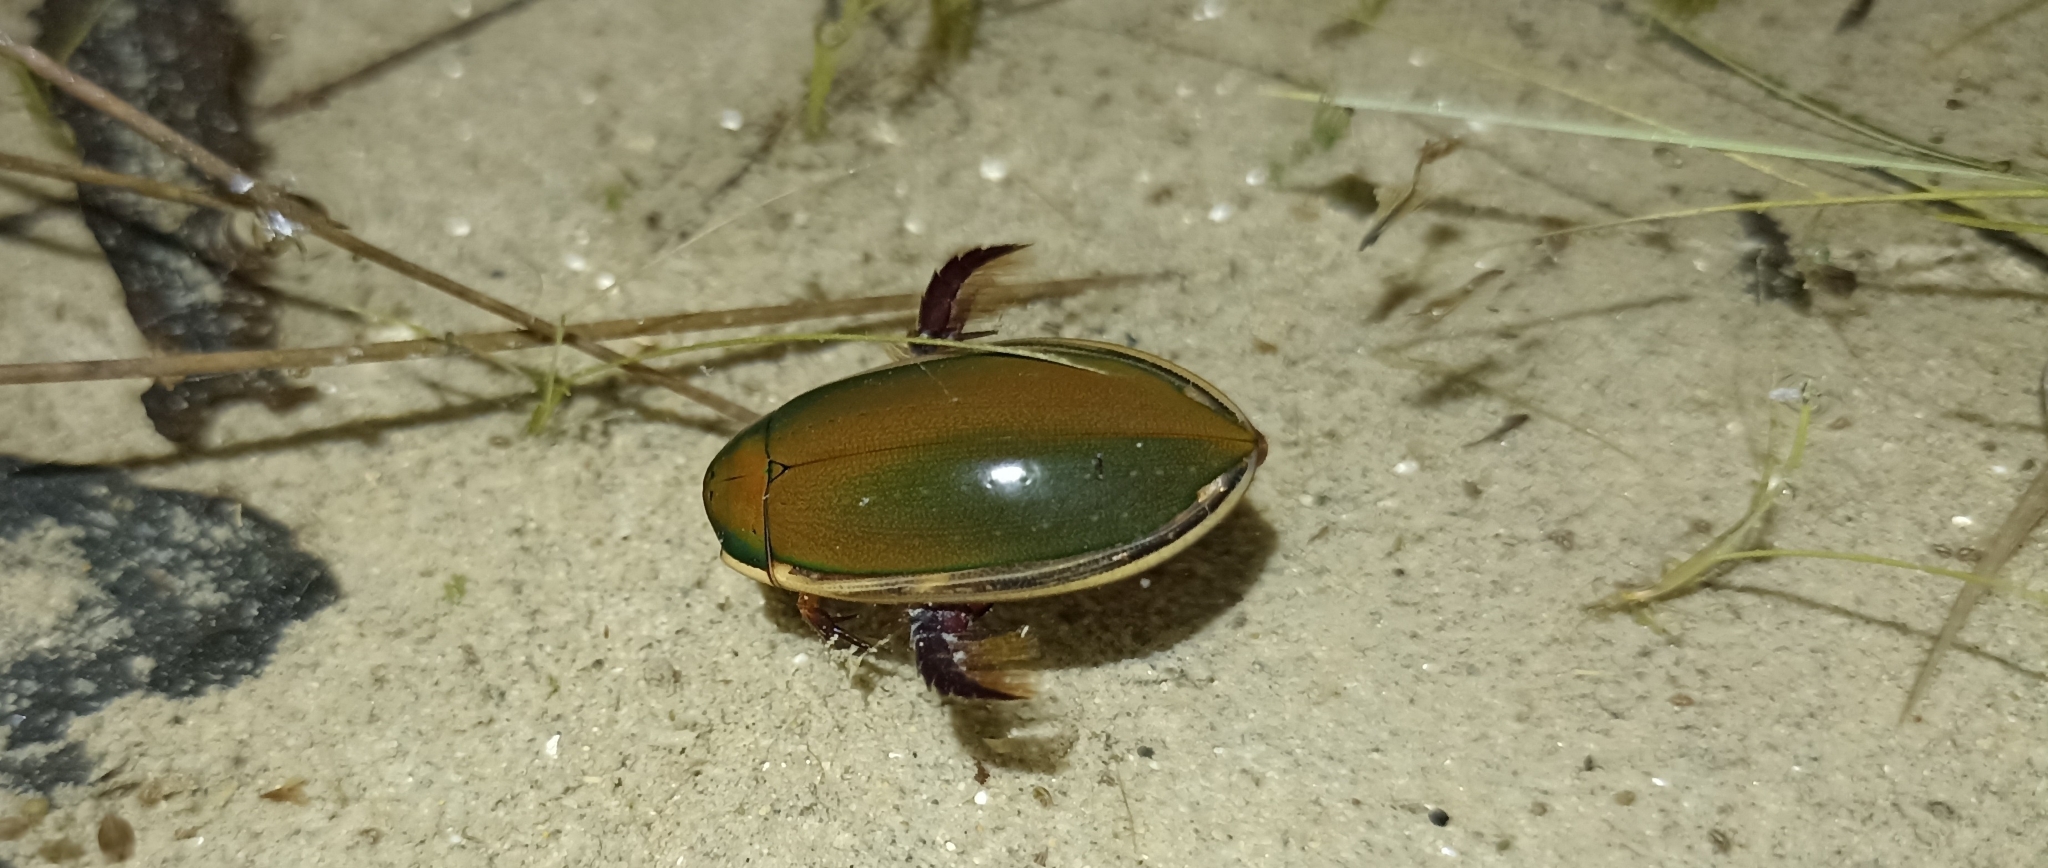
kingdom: Animalia
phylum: Arthropoda
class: Insecta
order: Coleoptera
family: Dytiscidae
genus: Cybister
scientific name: Cybister tripunctatus
